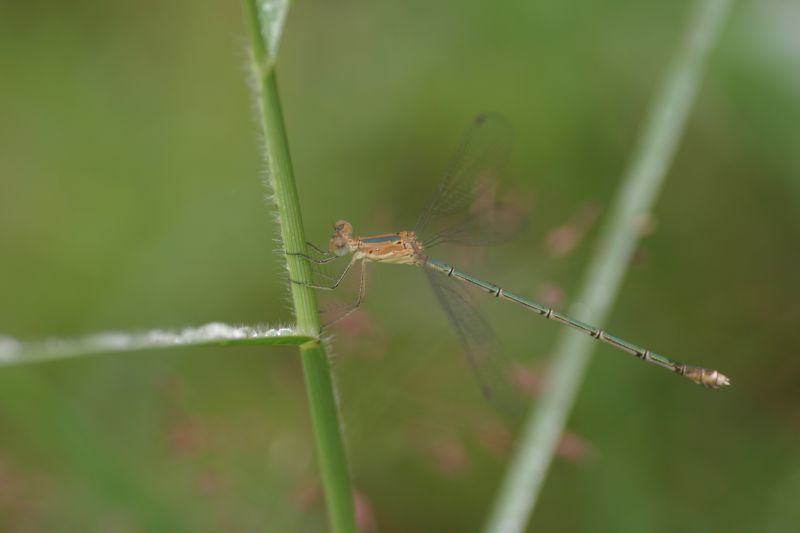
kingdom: Animalia
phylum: Arthropoda
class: Insecta
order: Odonata
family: Lestidae
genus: Lestes
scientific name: Lestes elatus
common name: Emerald spreadwing
